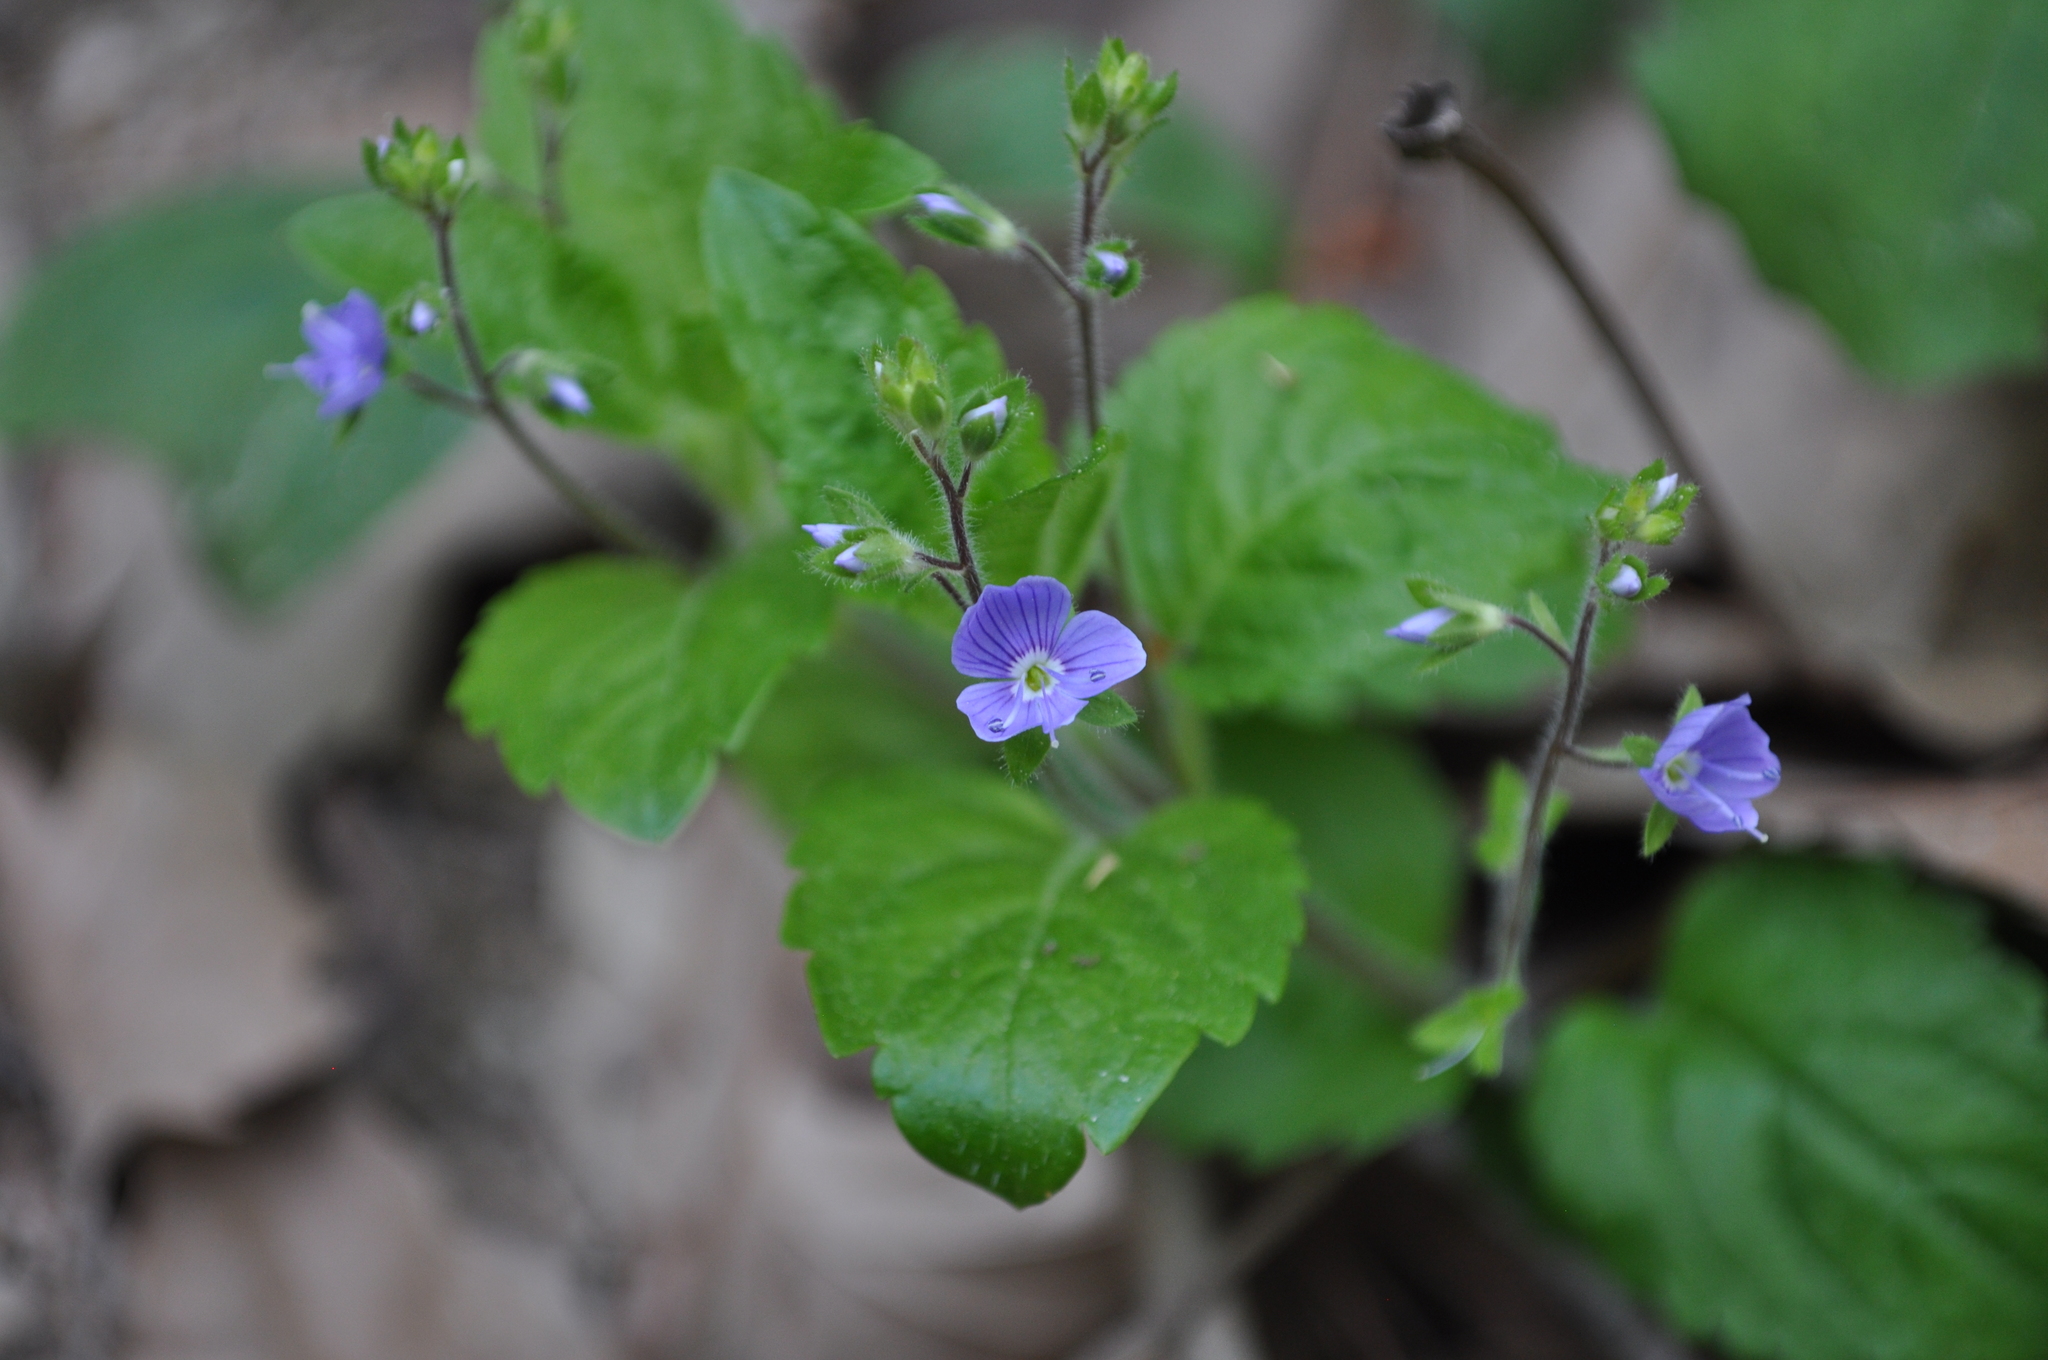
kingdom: Plantae
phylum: Tracheophyta
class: Magnoliopsida
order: Lamiales
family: Plantaginaceae
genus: Veronica
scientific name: Veronica montana
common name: Wood speedwell
